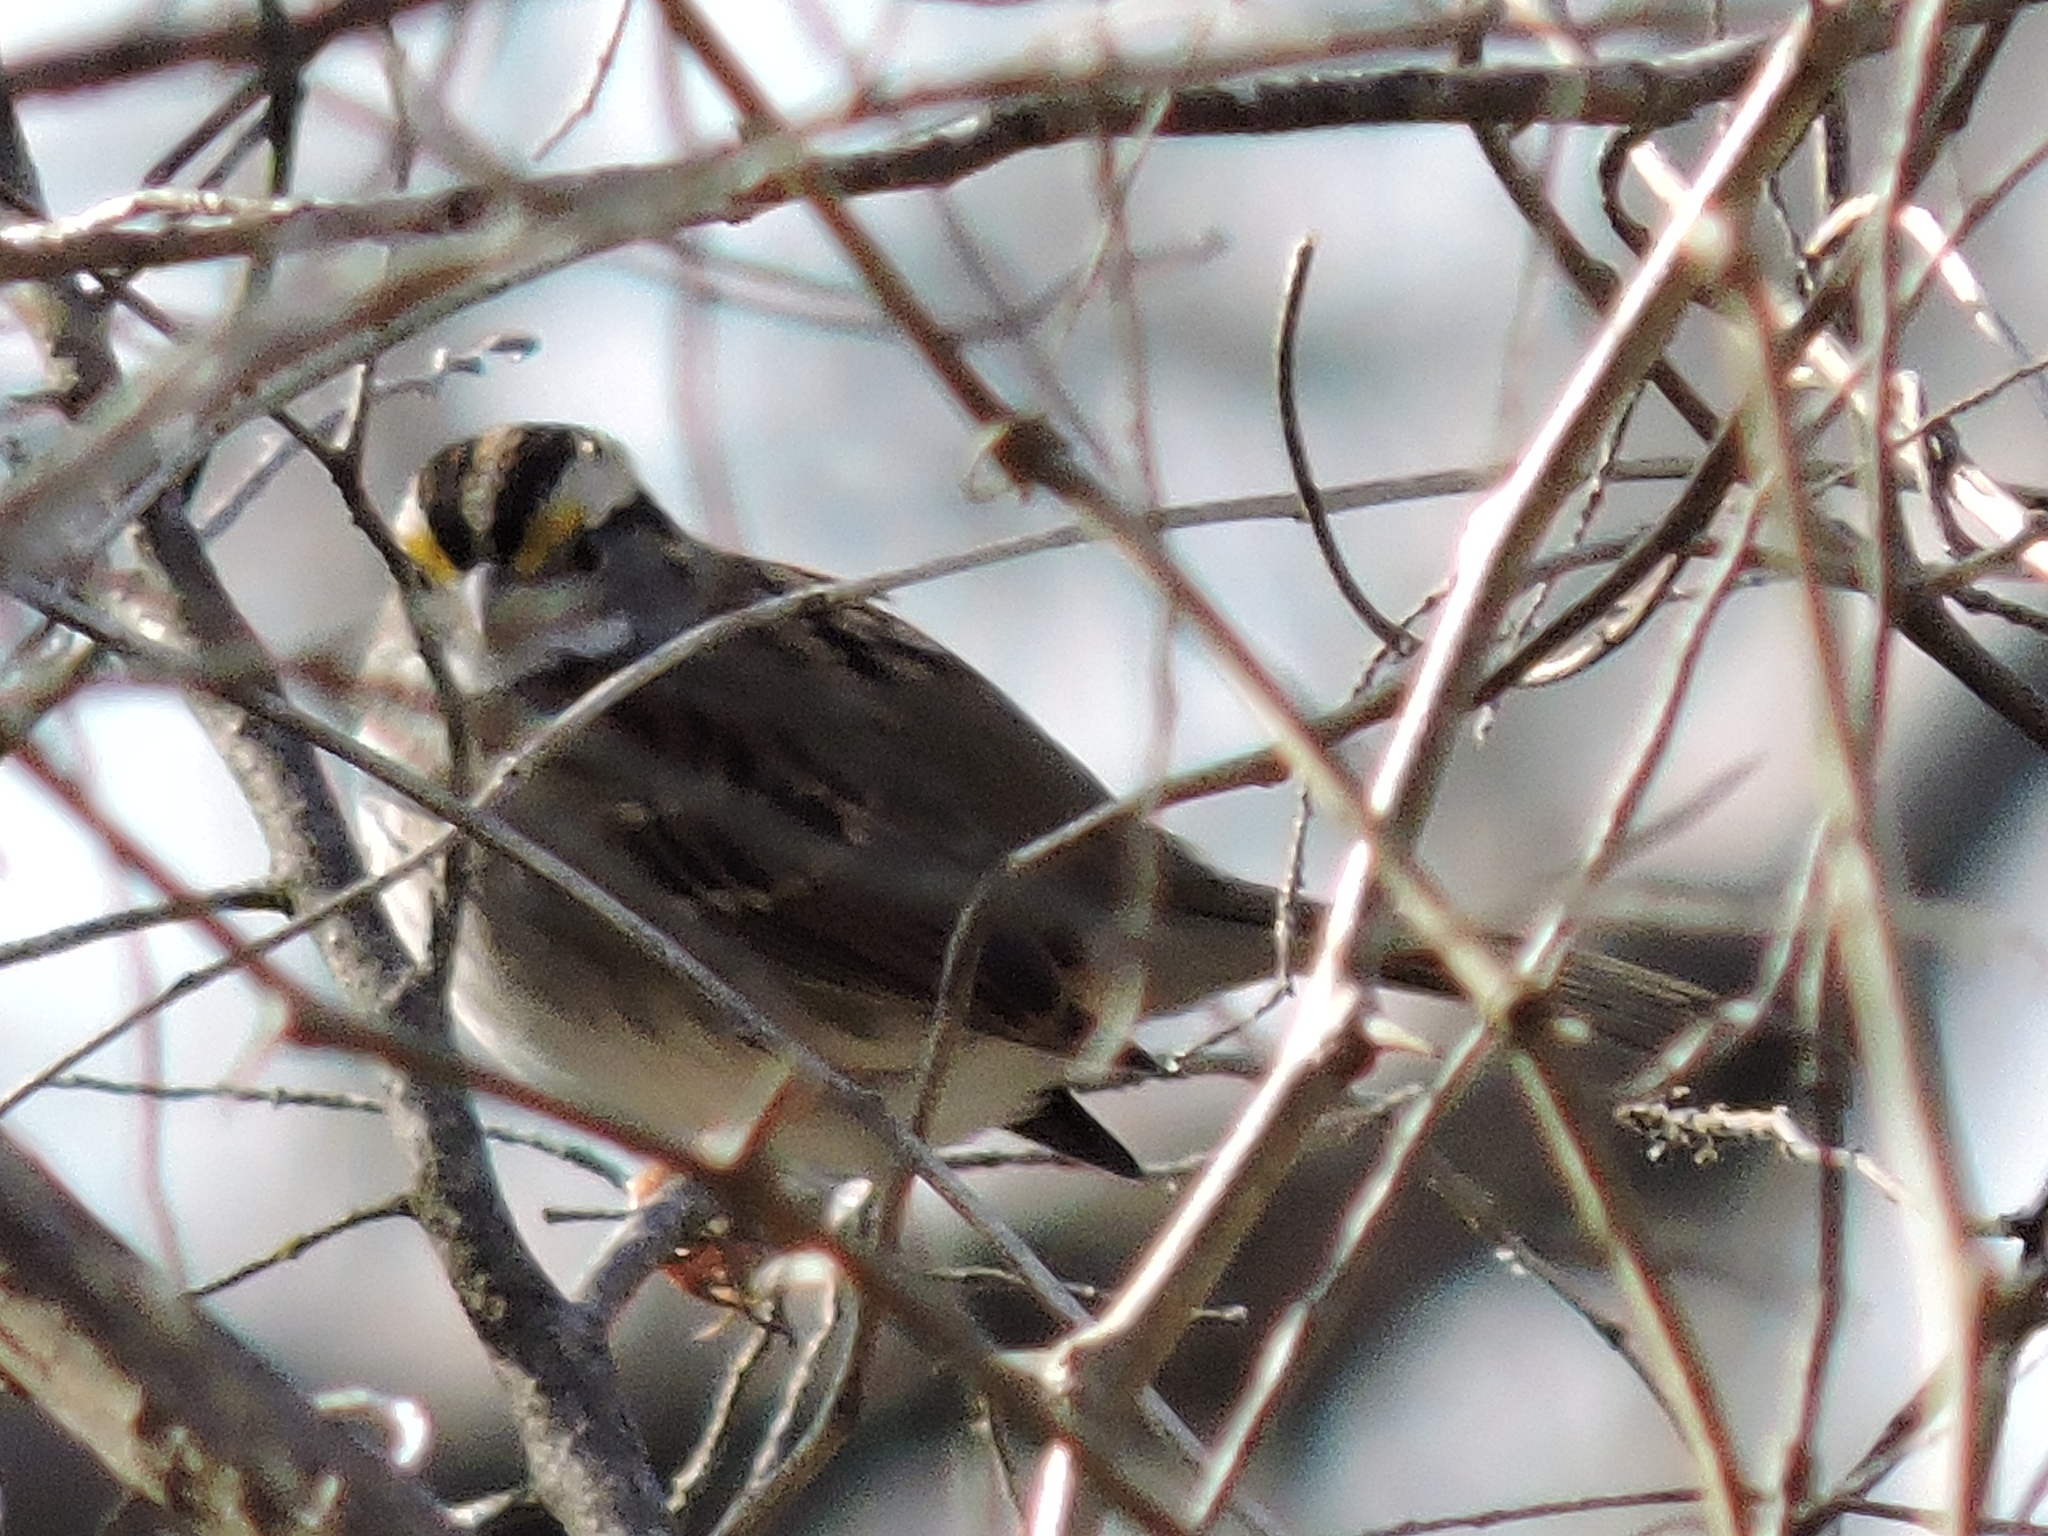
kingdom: Animalia
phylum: Chordata
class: Aves
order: Passeriformes
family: Passerellidae
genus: Zonotrichia
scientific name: Zonotrichia albicollis
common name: White-throated sparrow
